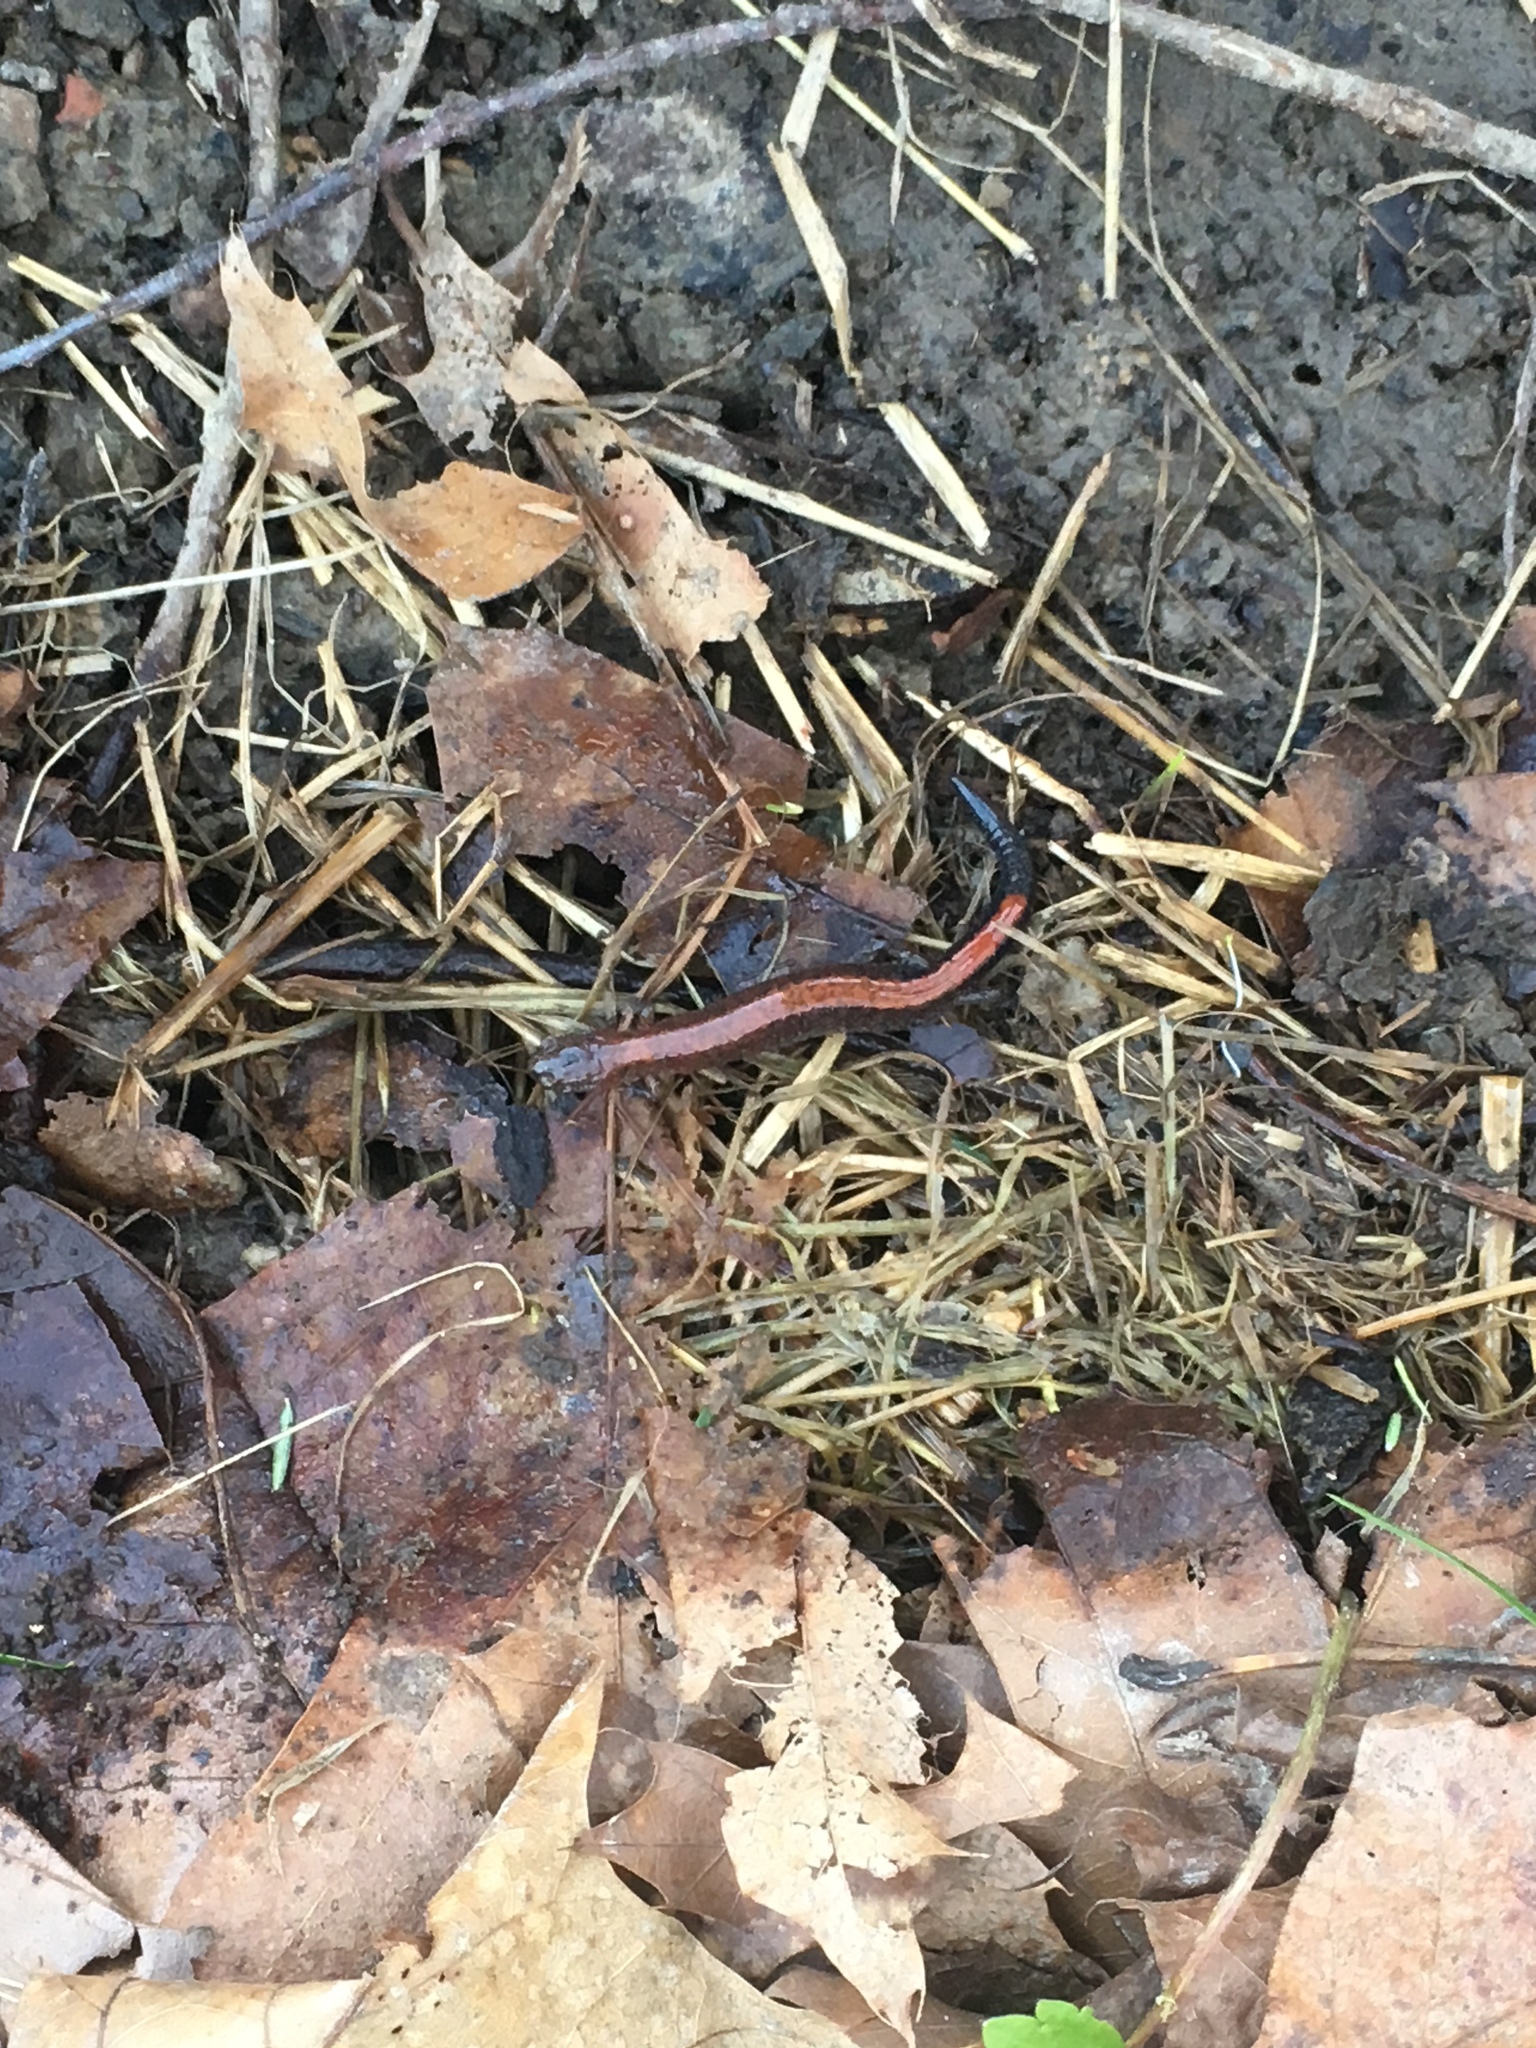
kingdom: Animalia
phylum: Chordata
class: Amphibia
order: Caudata
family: Plethodontidae
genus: Plethodon
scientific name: Plethodon cinereus
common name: Redback salamander
